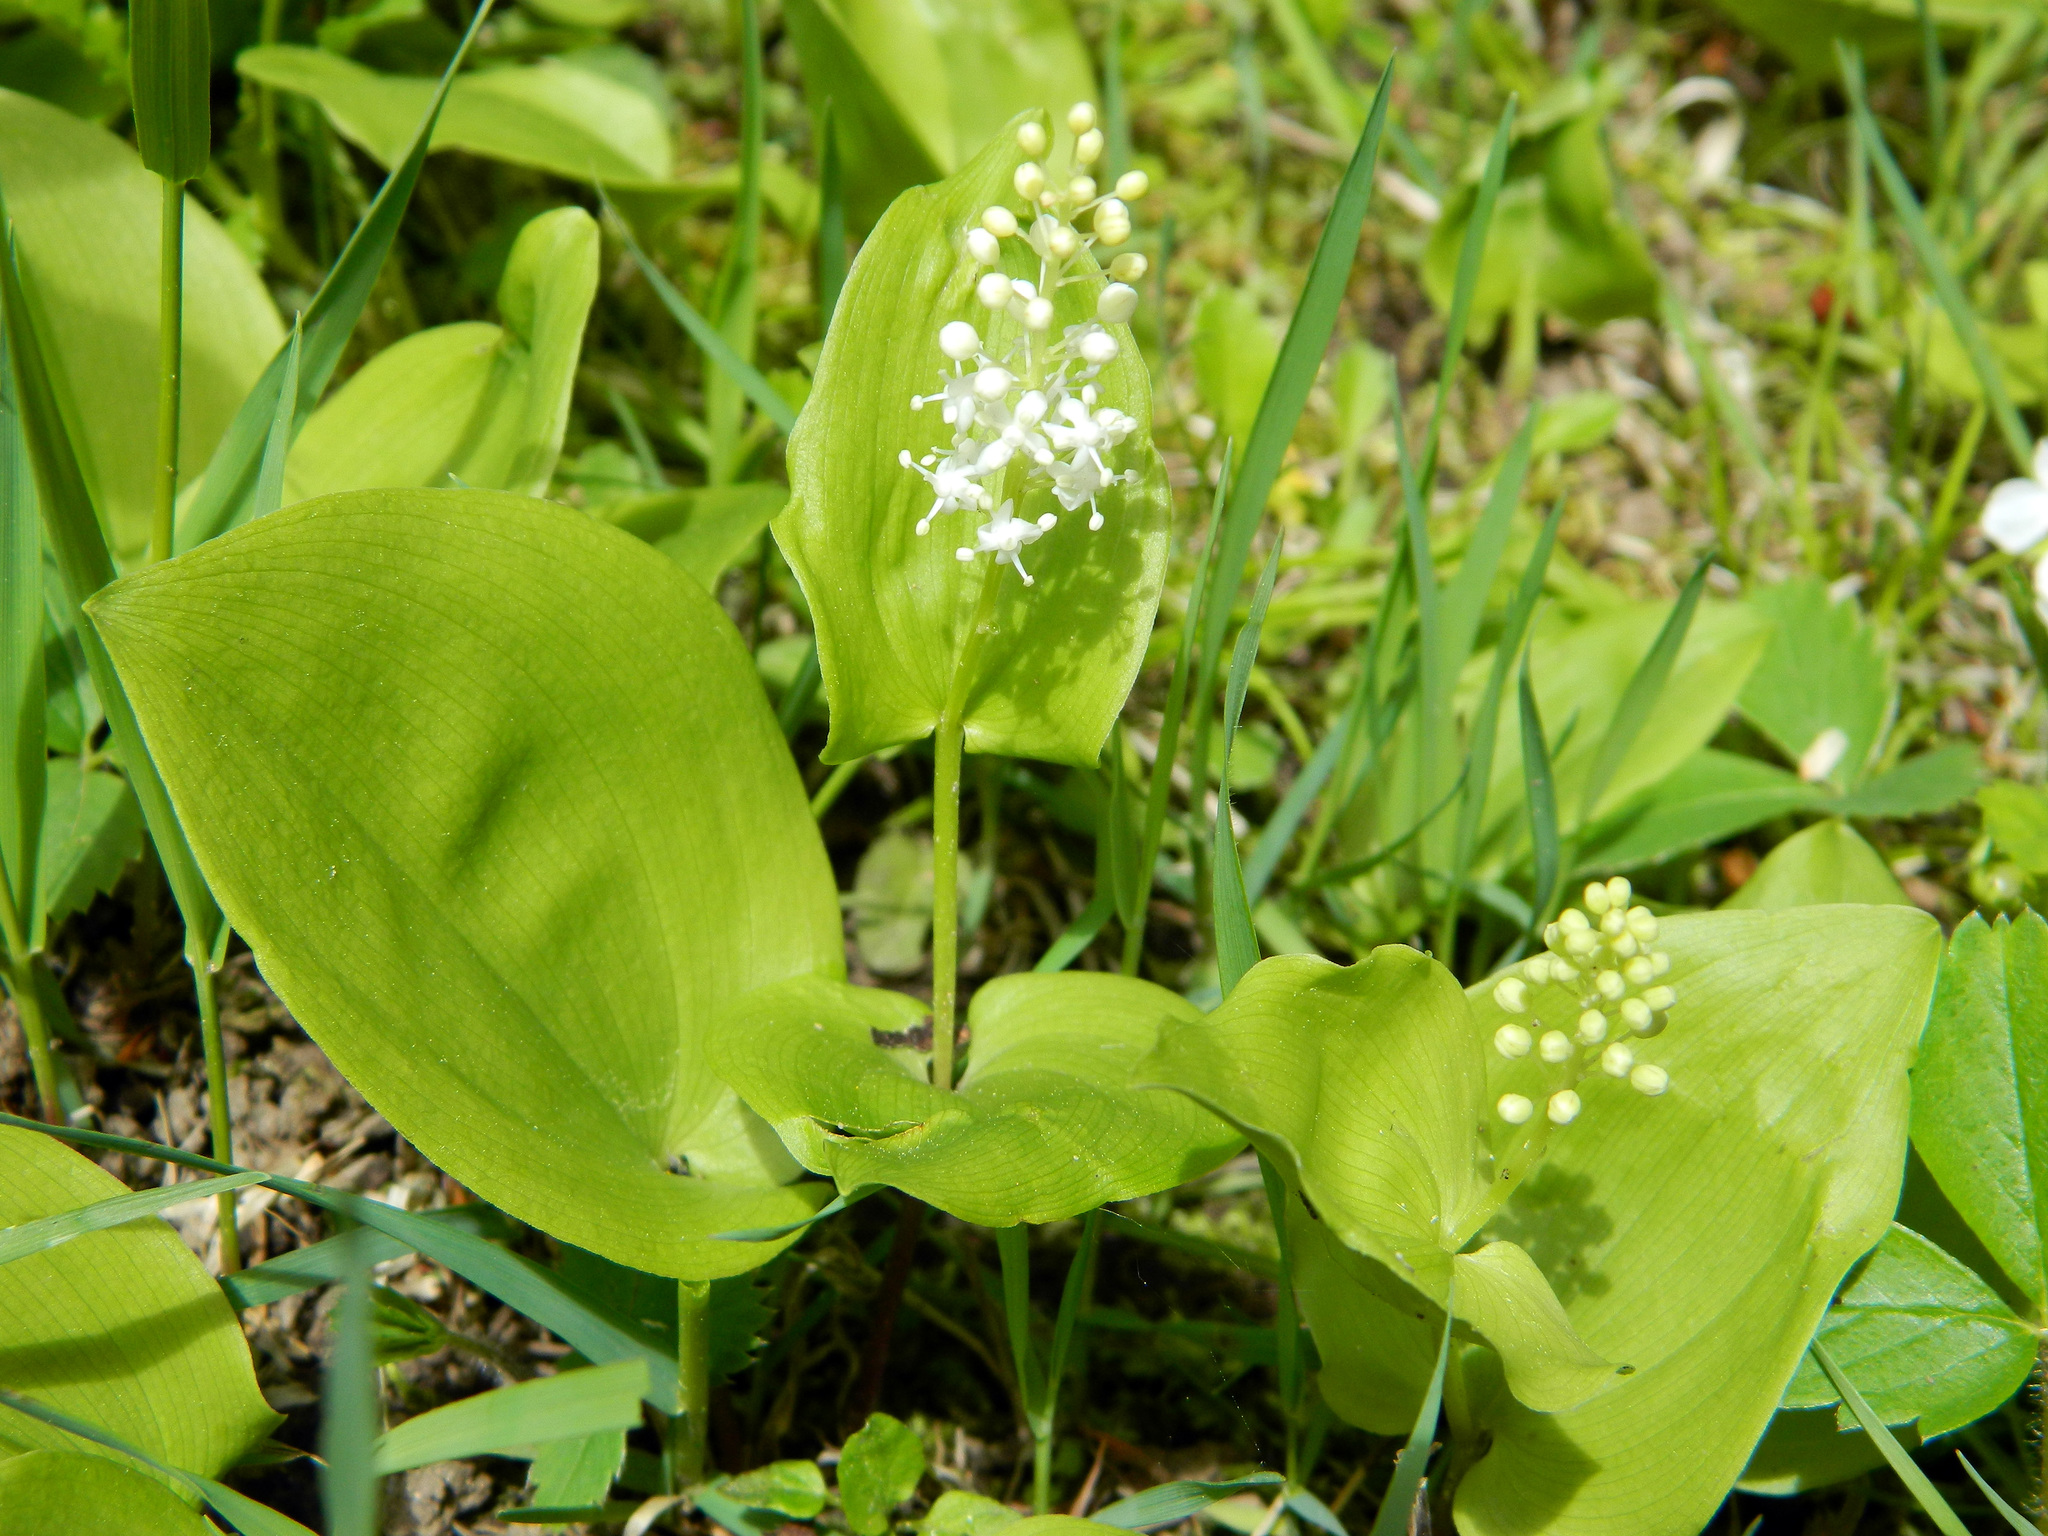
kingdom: Plantae
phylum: Tracheophyta
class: Liliopsida
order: Asparagales
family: Asparagaceae
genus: Maianthemum
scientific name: Maianthemum canadense
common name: False lily-of-the-valley
